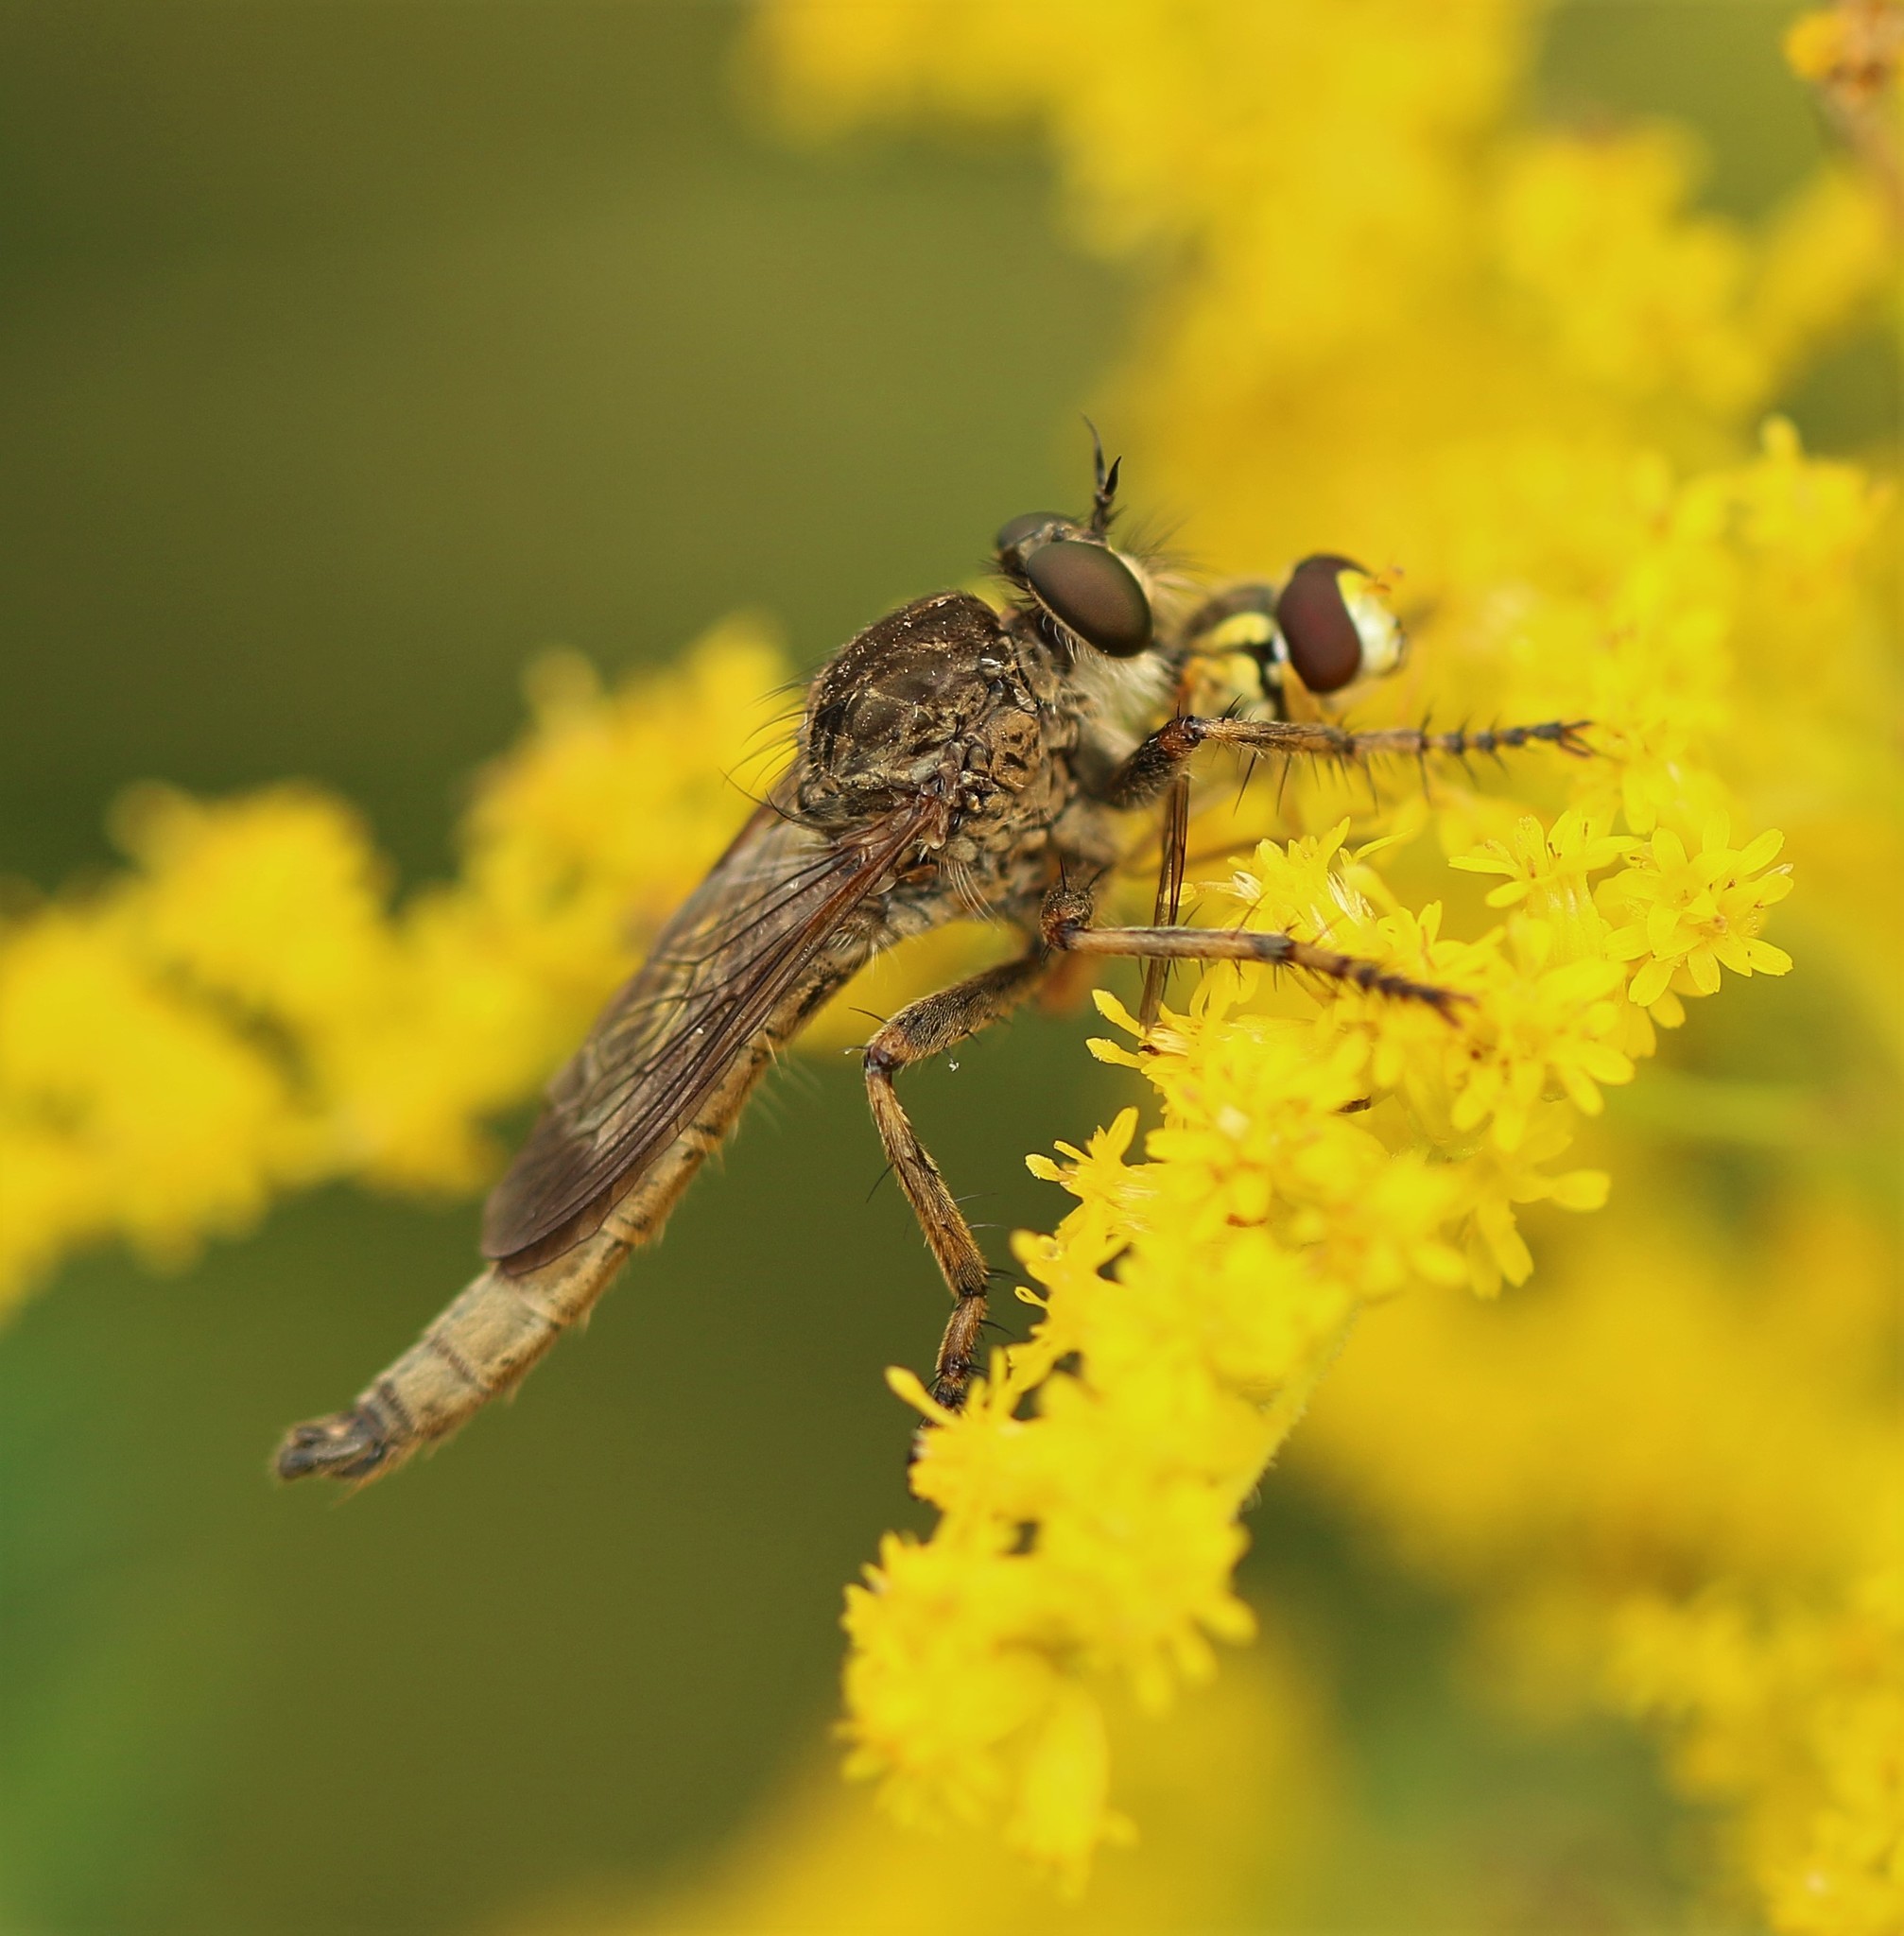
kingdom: Animalia
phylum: Arthropoda
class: Insecta
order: Diptera
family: Asilidae
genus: Machimus
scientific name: Machimus snowii
